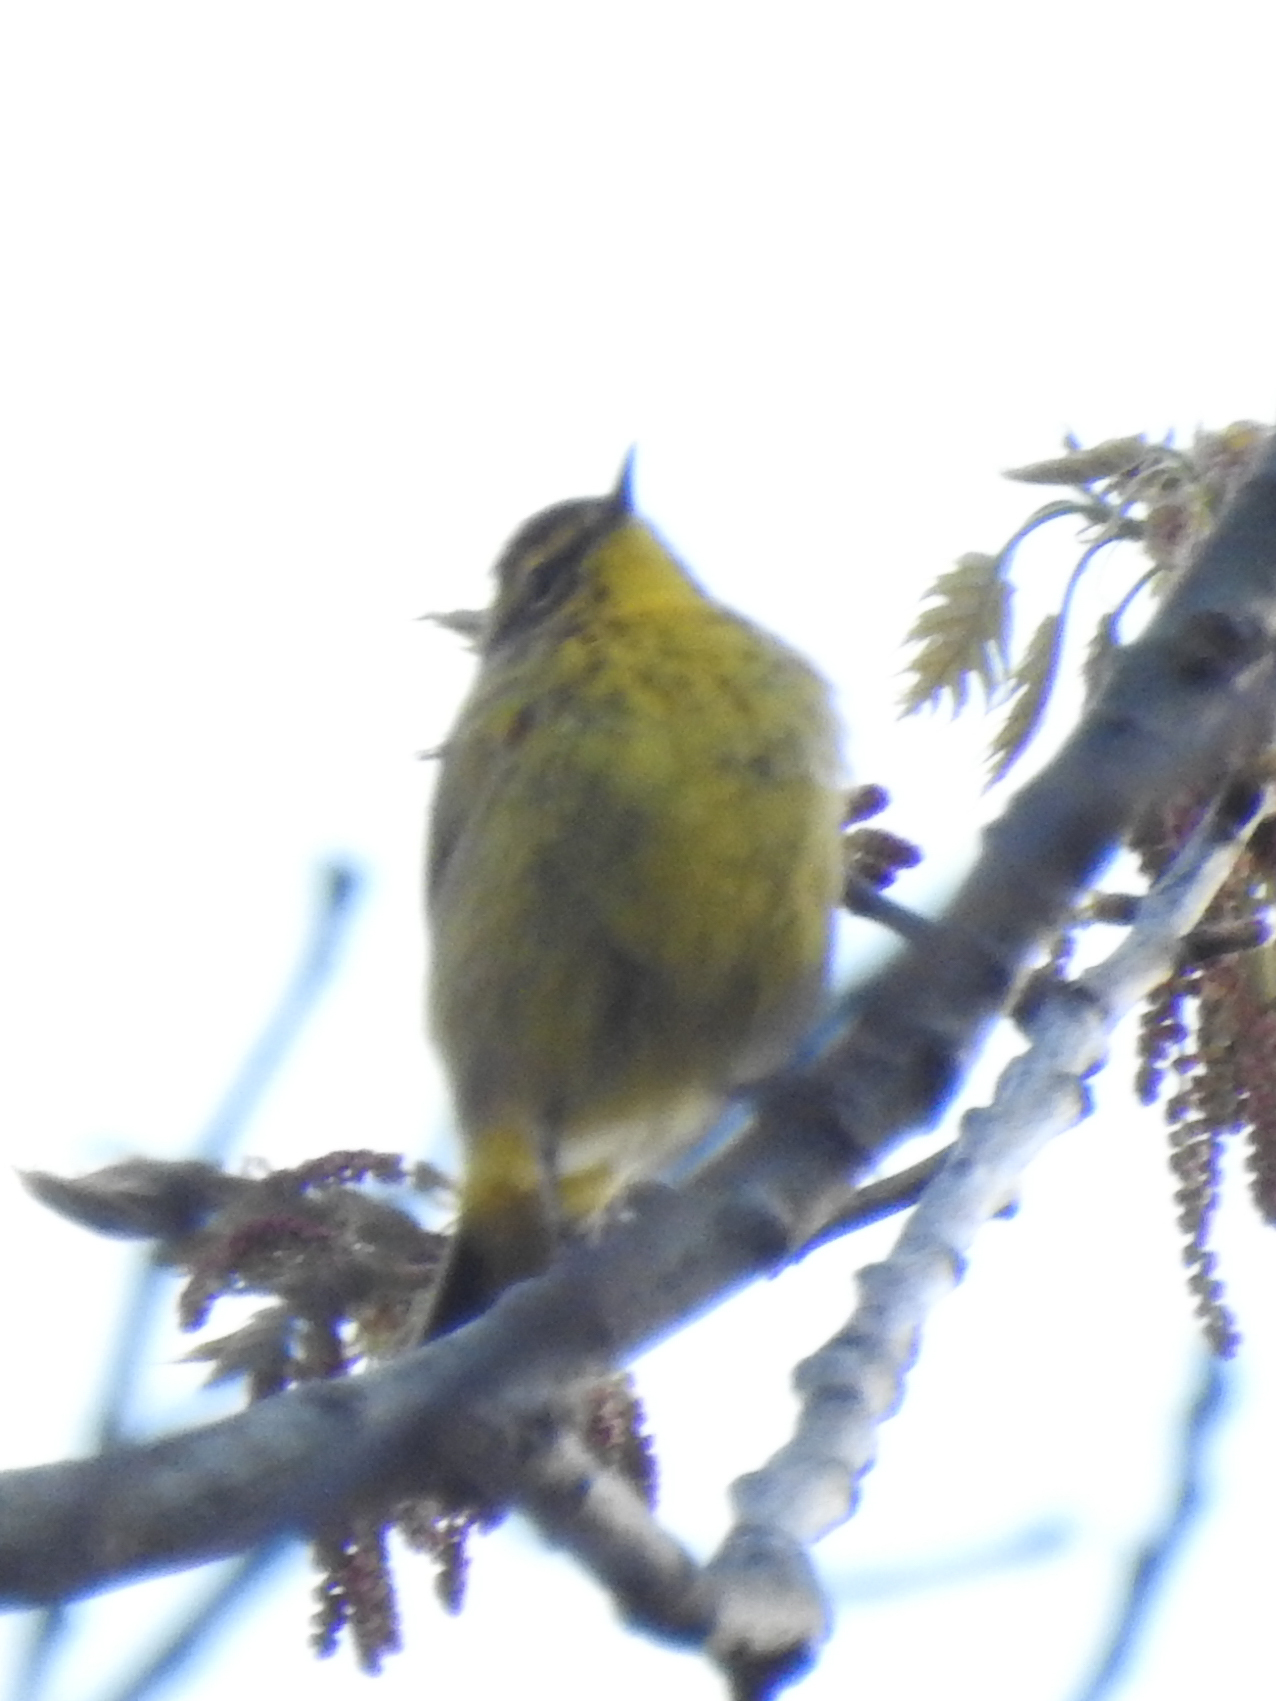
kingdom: Animalia
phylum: Chordata
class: Aves
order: Passeriformes
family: Parulidae
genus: Setophaga
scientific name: Setophaga palmarum
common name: Palm warbler
